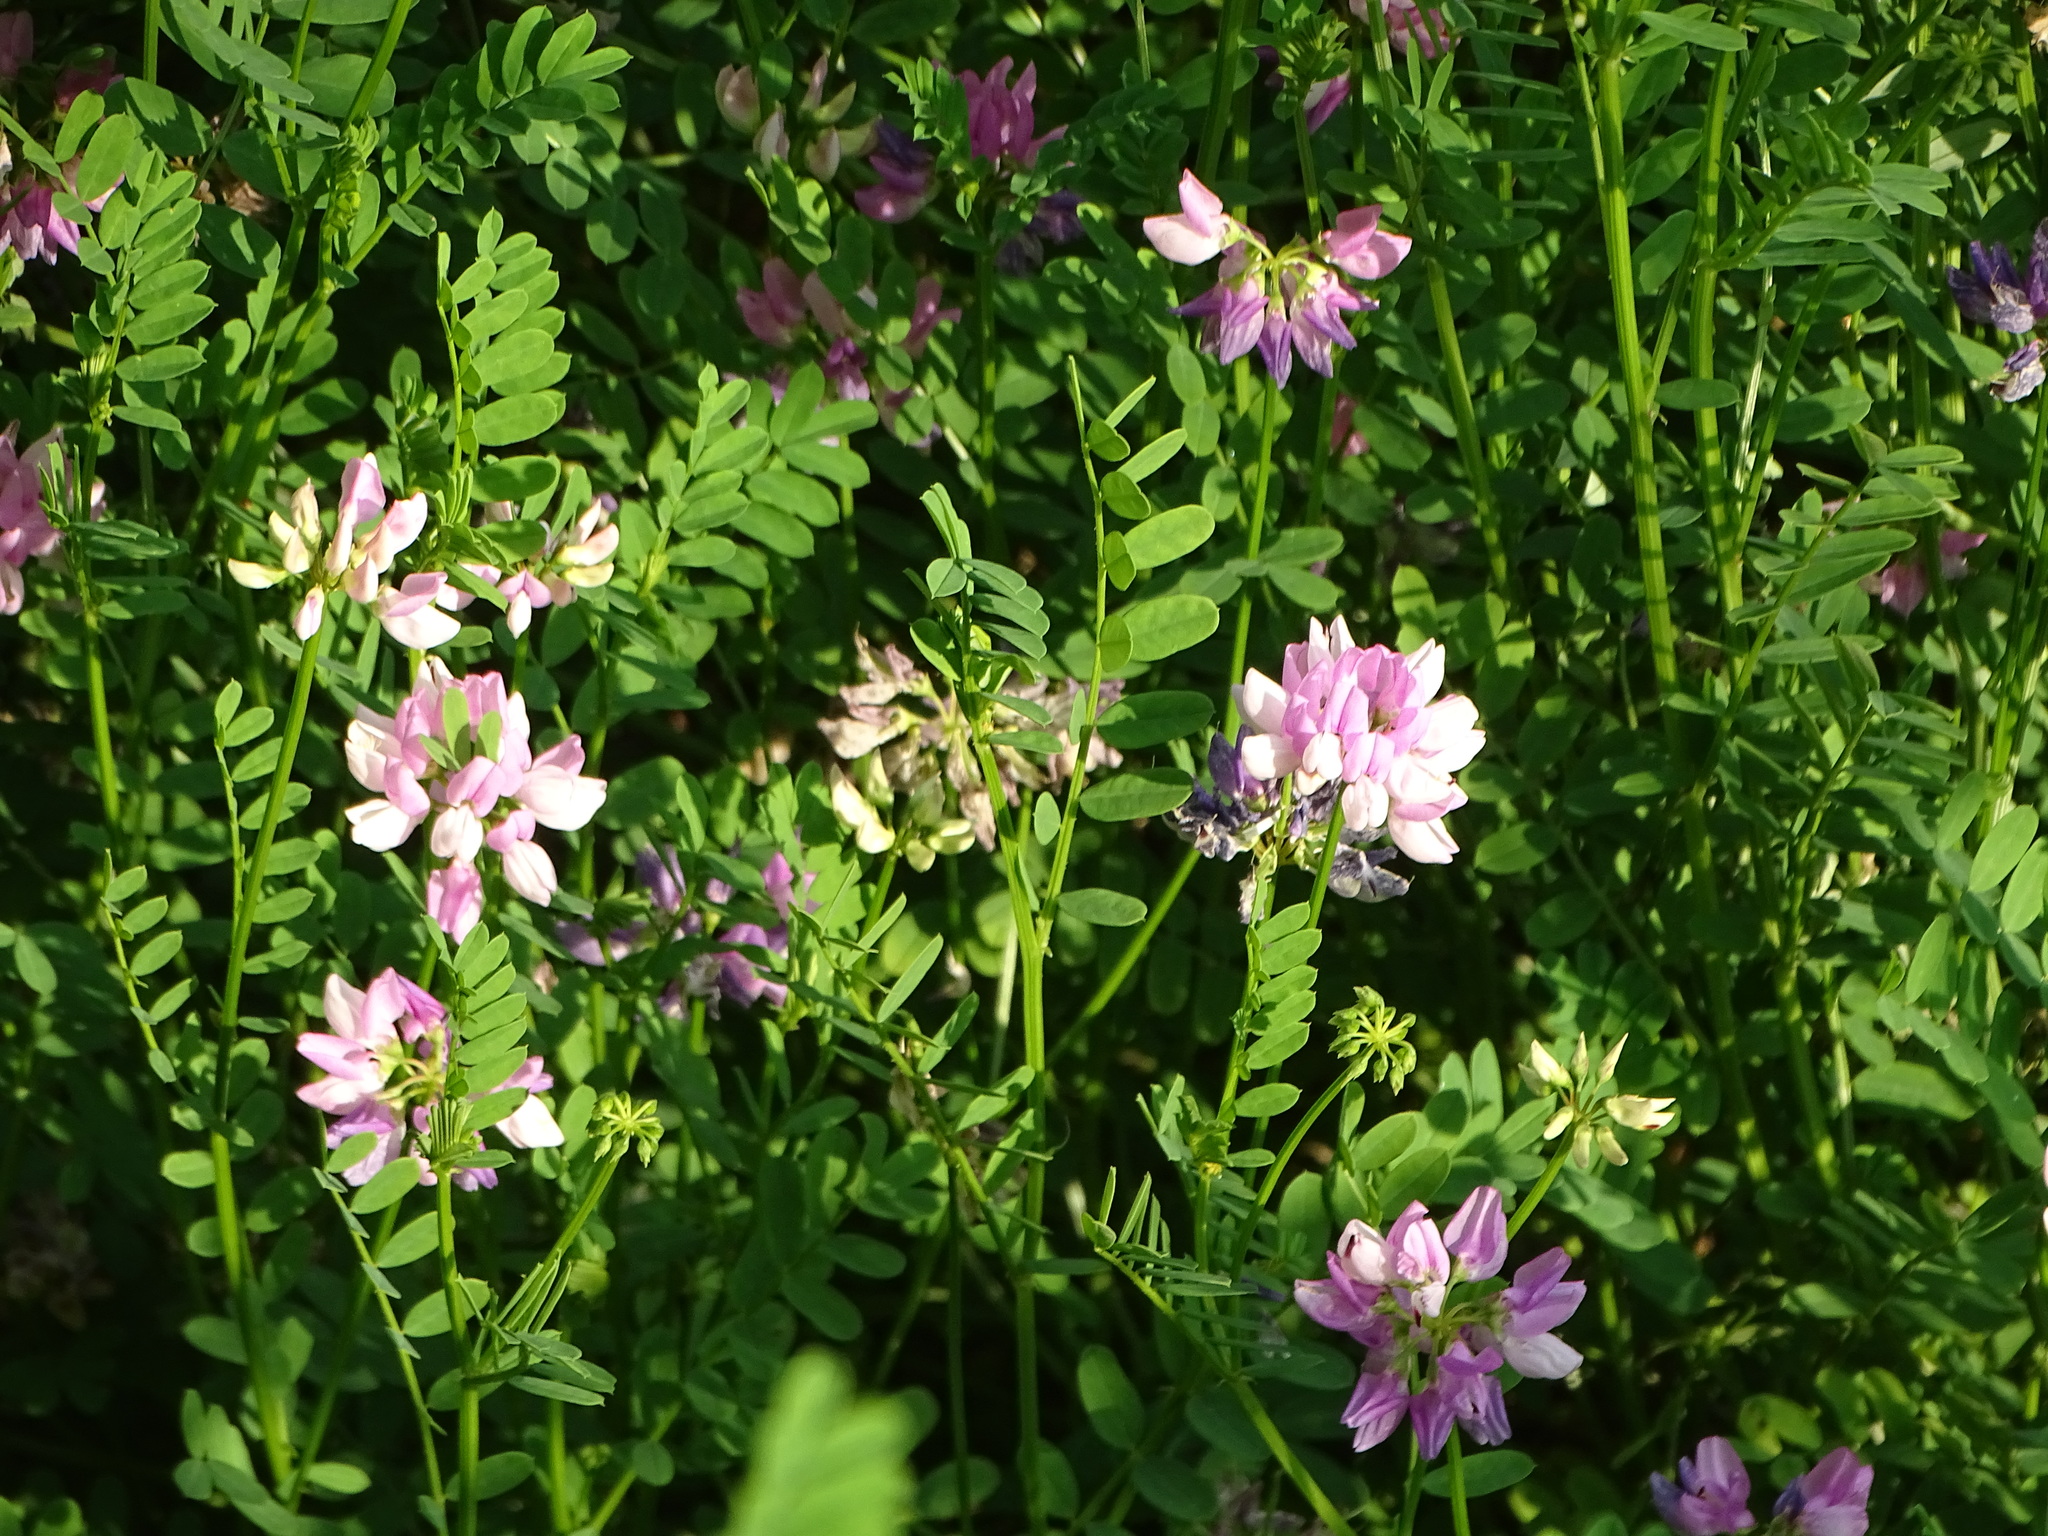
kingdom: Plantae
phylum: Tracheophyta
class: Magnoliopsida
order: Fabales
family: Fabaceae
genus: Coronilla
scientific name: Coronilla varia
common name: Crownvetch
